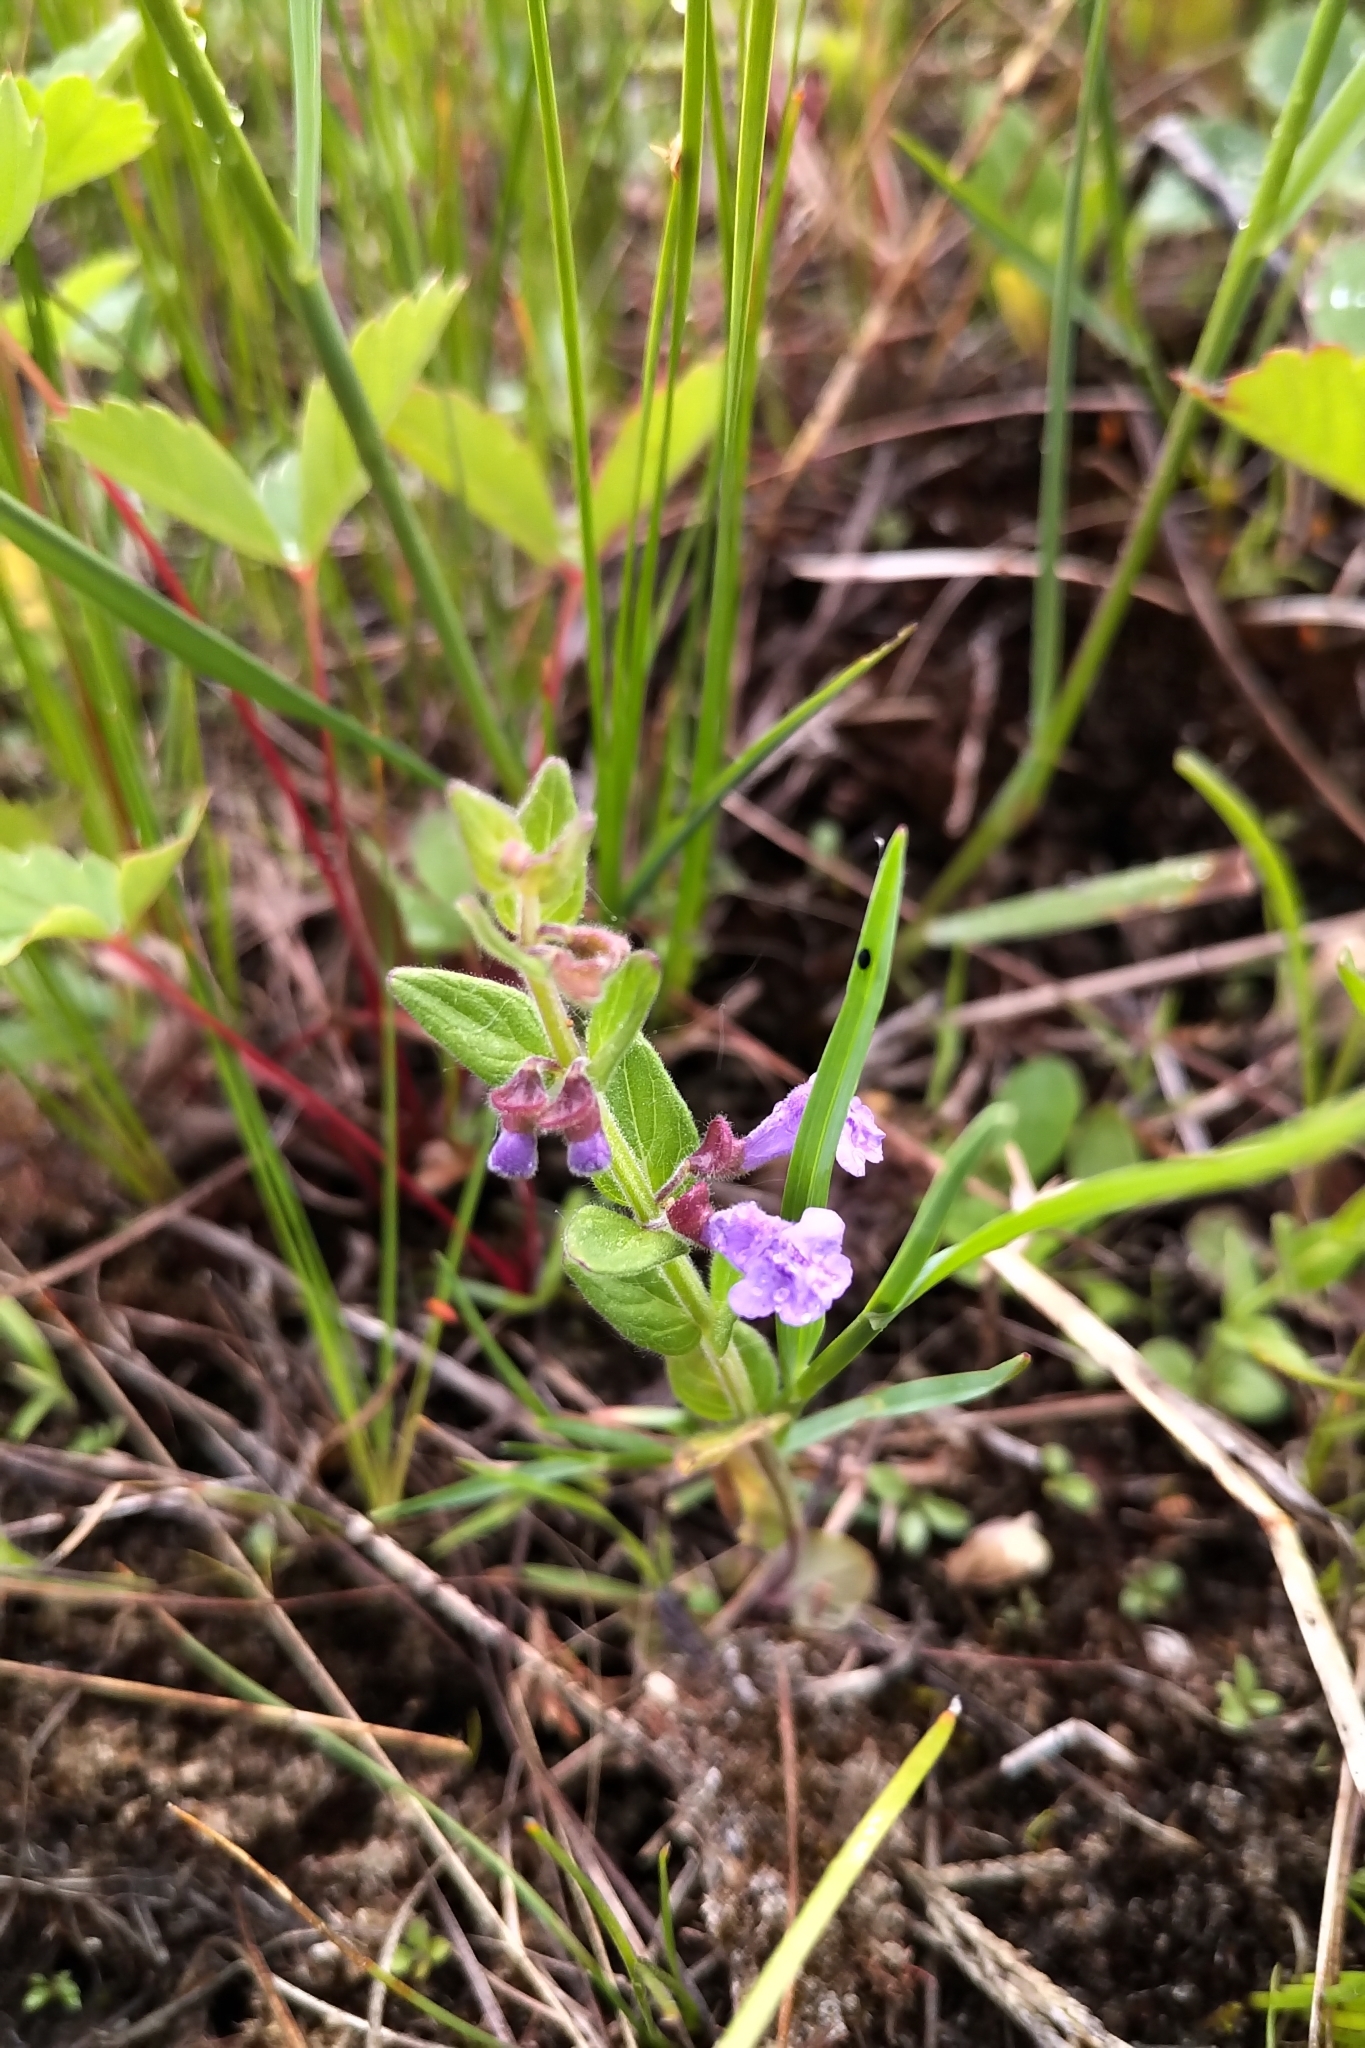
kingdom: Plantae
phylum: Tracheophyta
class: Magnoliopsida
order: Lamiales
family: Lamiaceae
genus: Scutellaria
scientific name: Scutellaria parvula
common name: Little scullcap
